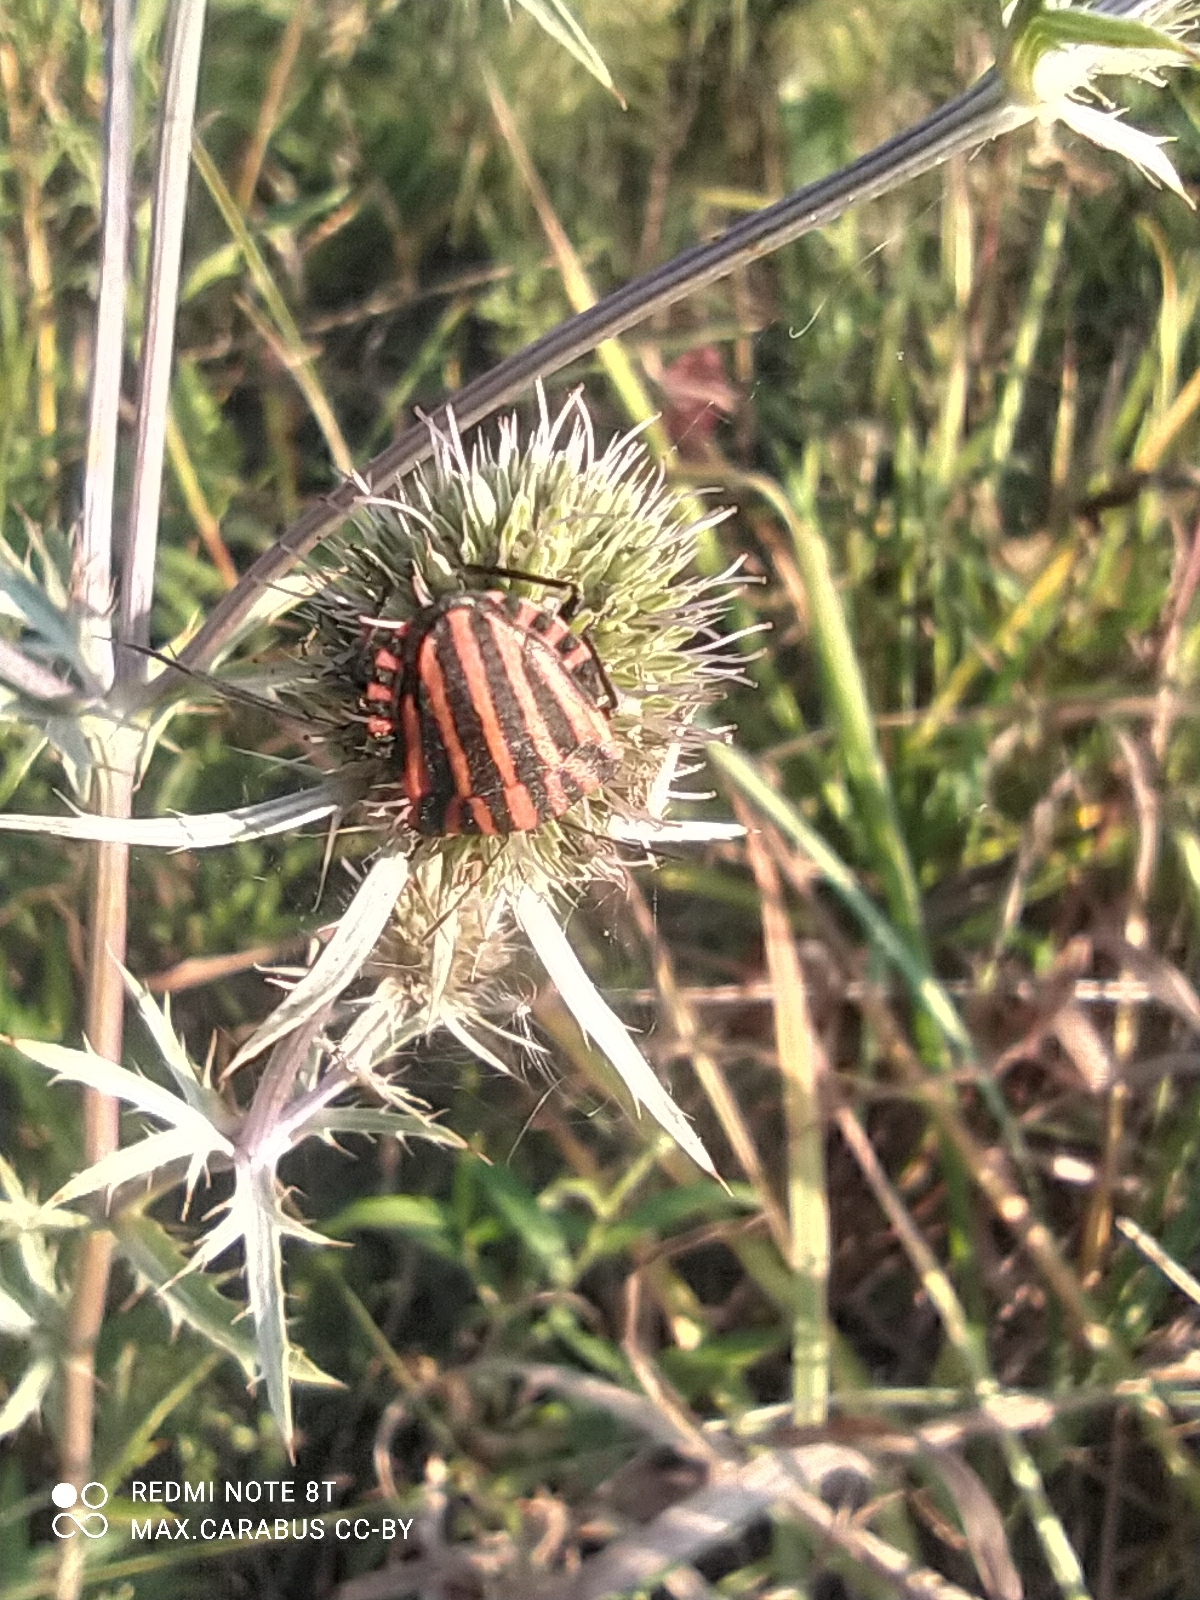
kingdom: Animalia
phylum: Arthropoda
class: Insecta
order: Hemiptera
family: Pentatomidae
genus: Graphosoma
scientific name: Graphosoma italicum
